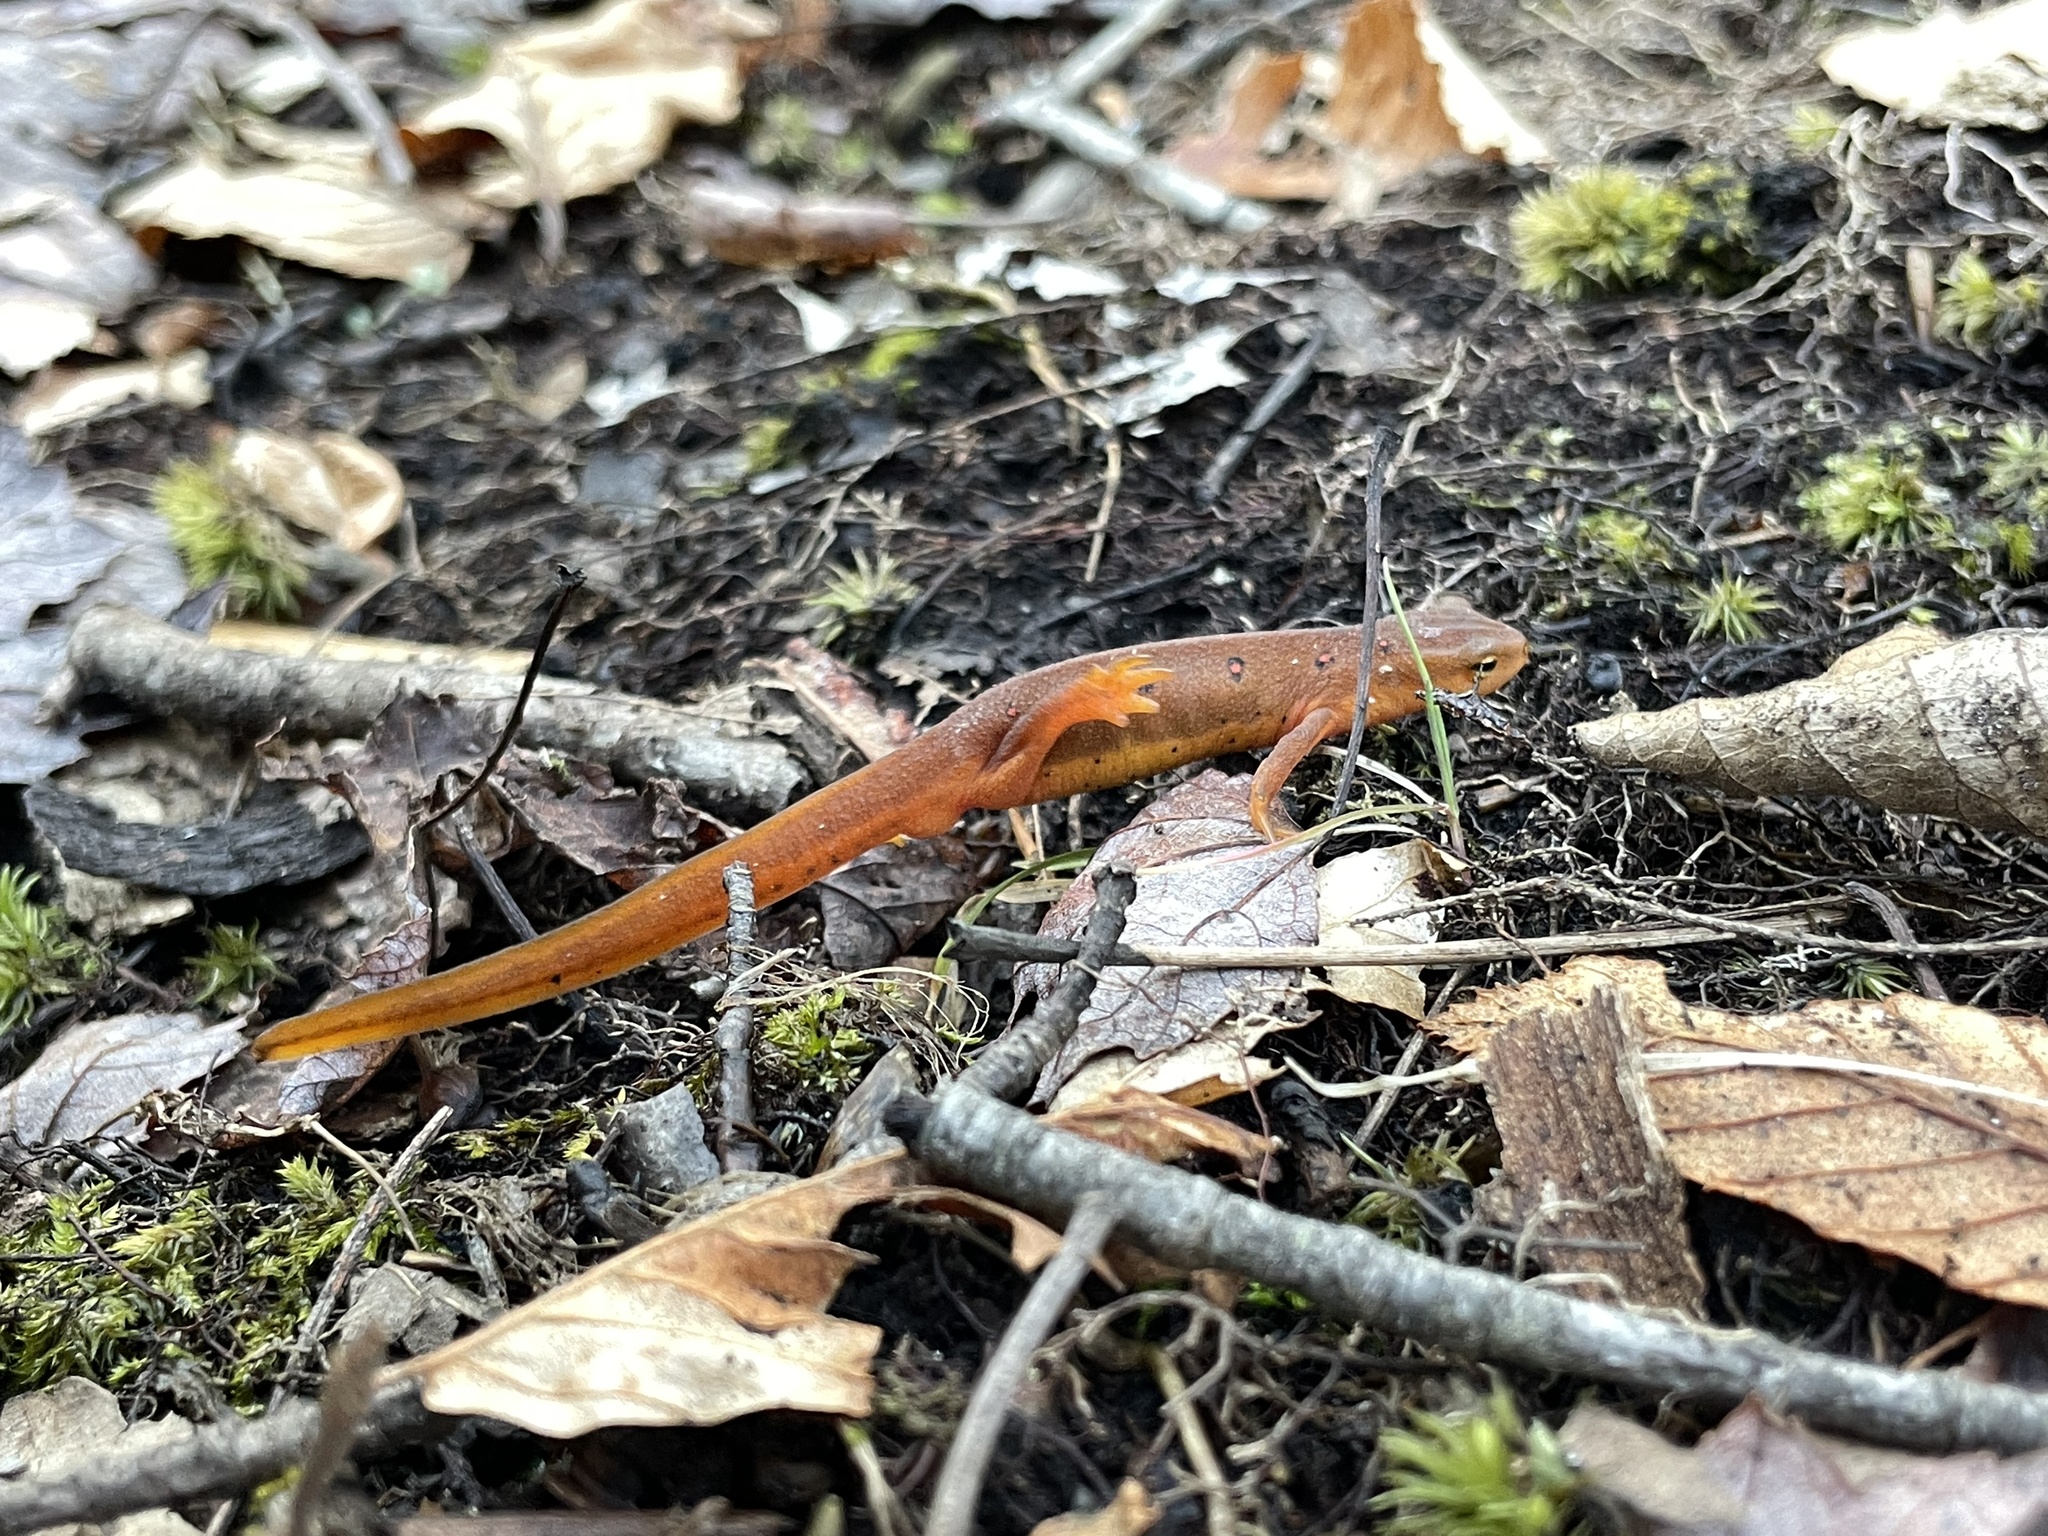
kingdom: Animalia
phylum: Chordata
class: Amphibia
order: Caudata
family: Salamandridae
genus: Notophthalmus
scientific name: Notophthalmus viridescens
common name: Eastern newt
